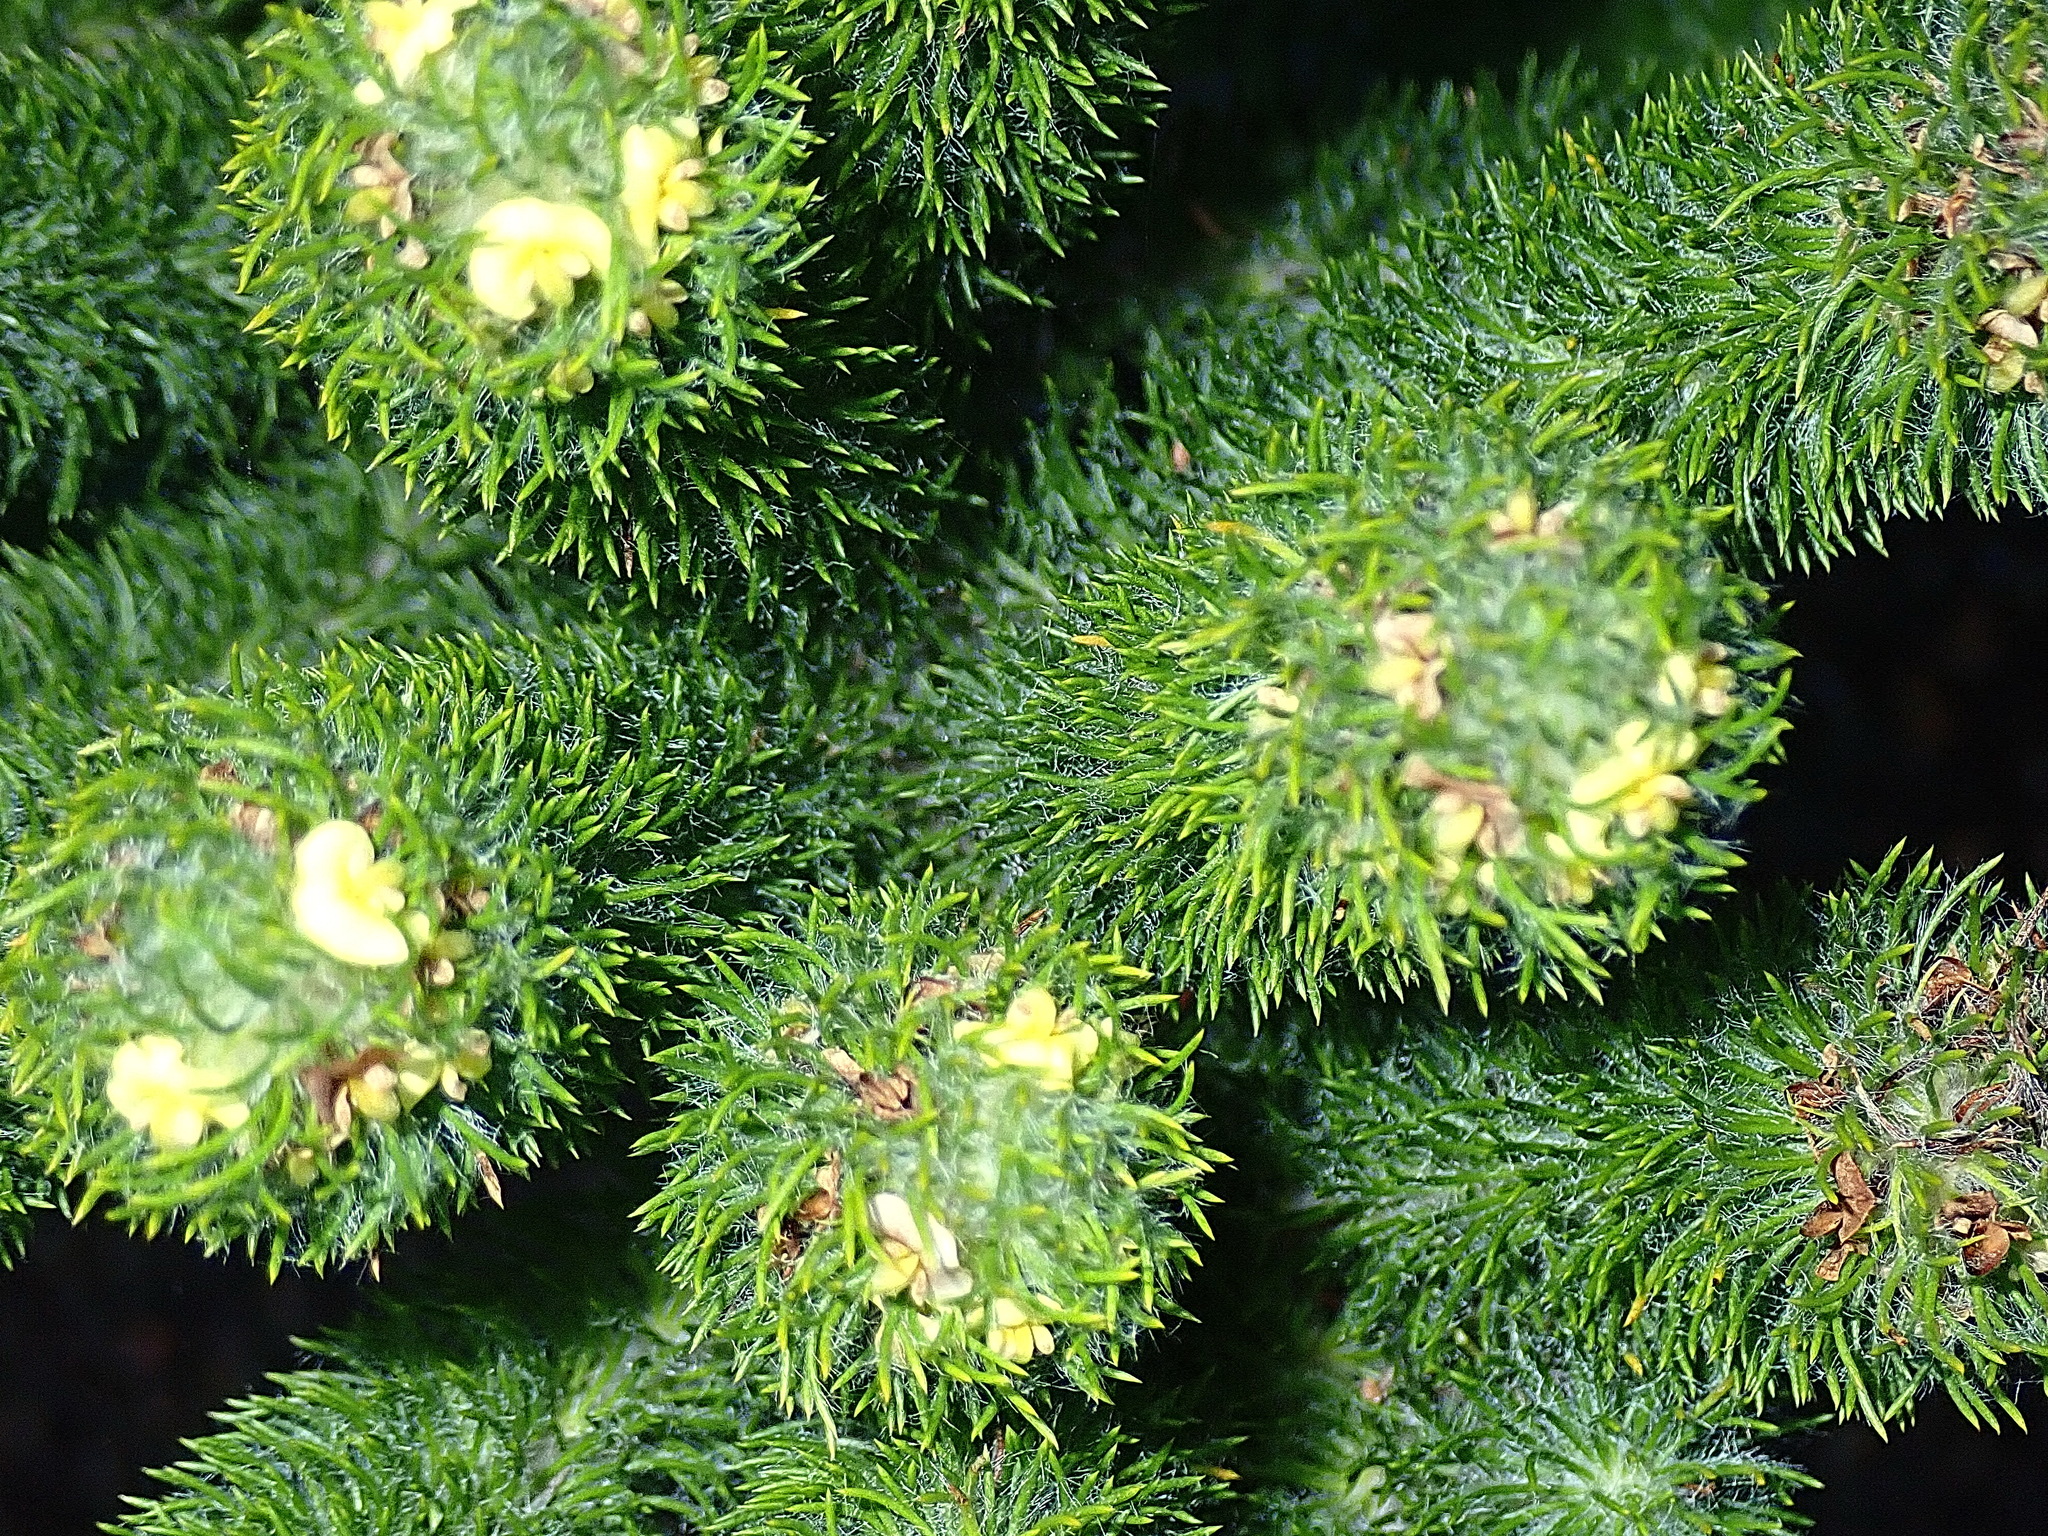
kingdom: Plantae
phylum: Tracheophyta
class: Magnoliopsida
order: Fabales
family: Fabaceae
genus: Aspalathus
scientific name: Aspalathus alopecurus
